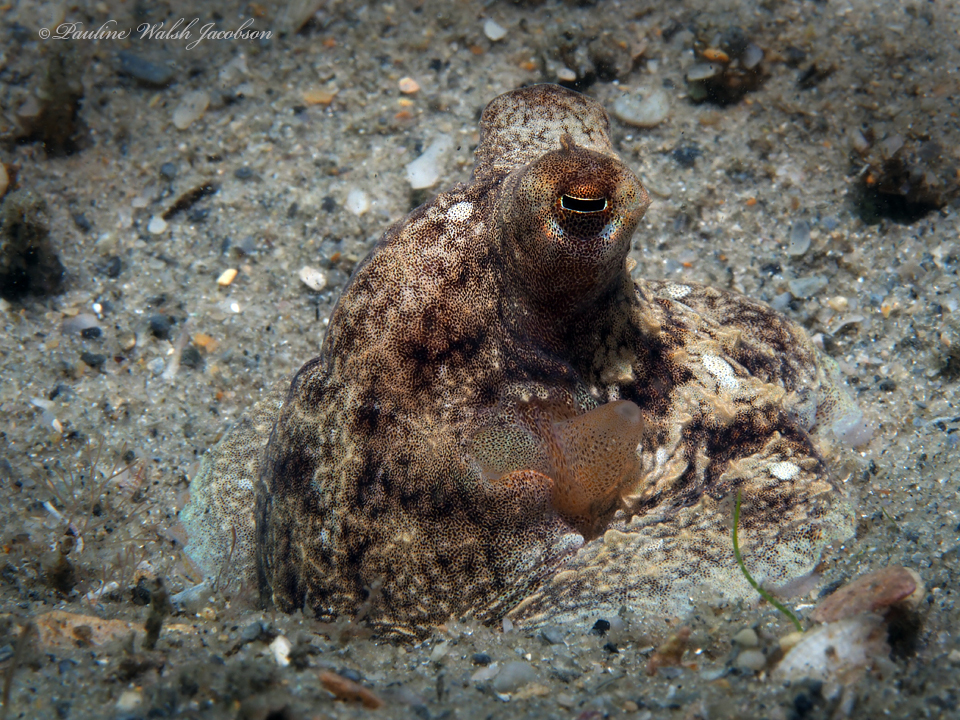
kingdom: Animalia
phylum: Mollusca
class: Cephalopoda
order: Octopoda
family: Octopodidae
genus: Macrotritopus
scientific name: Macrotritopus defilippi
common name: Lilliput longarm octopus
